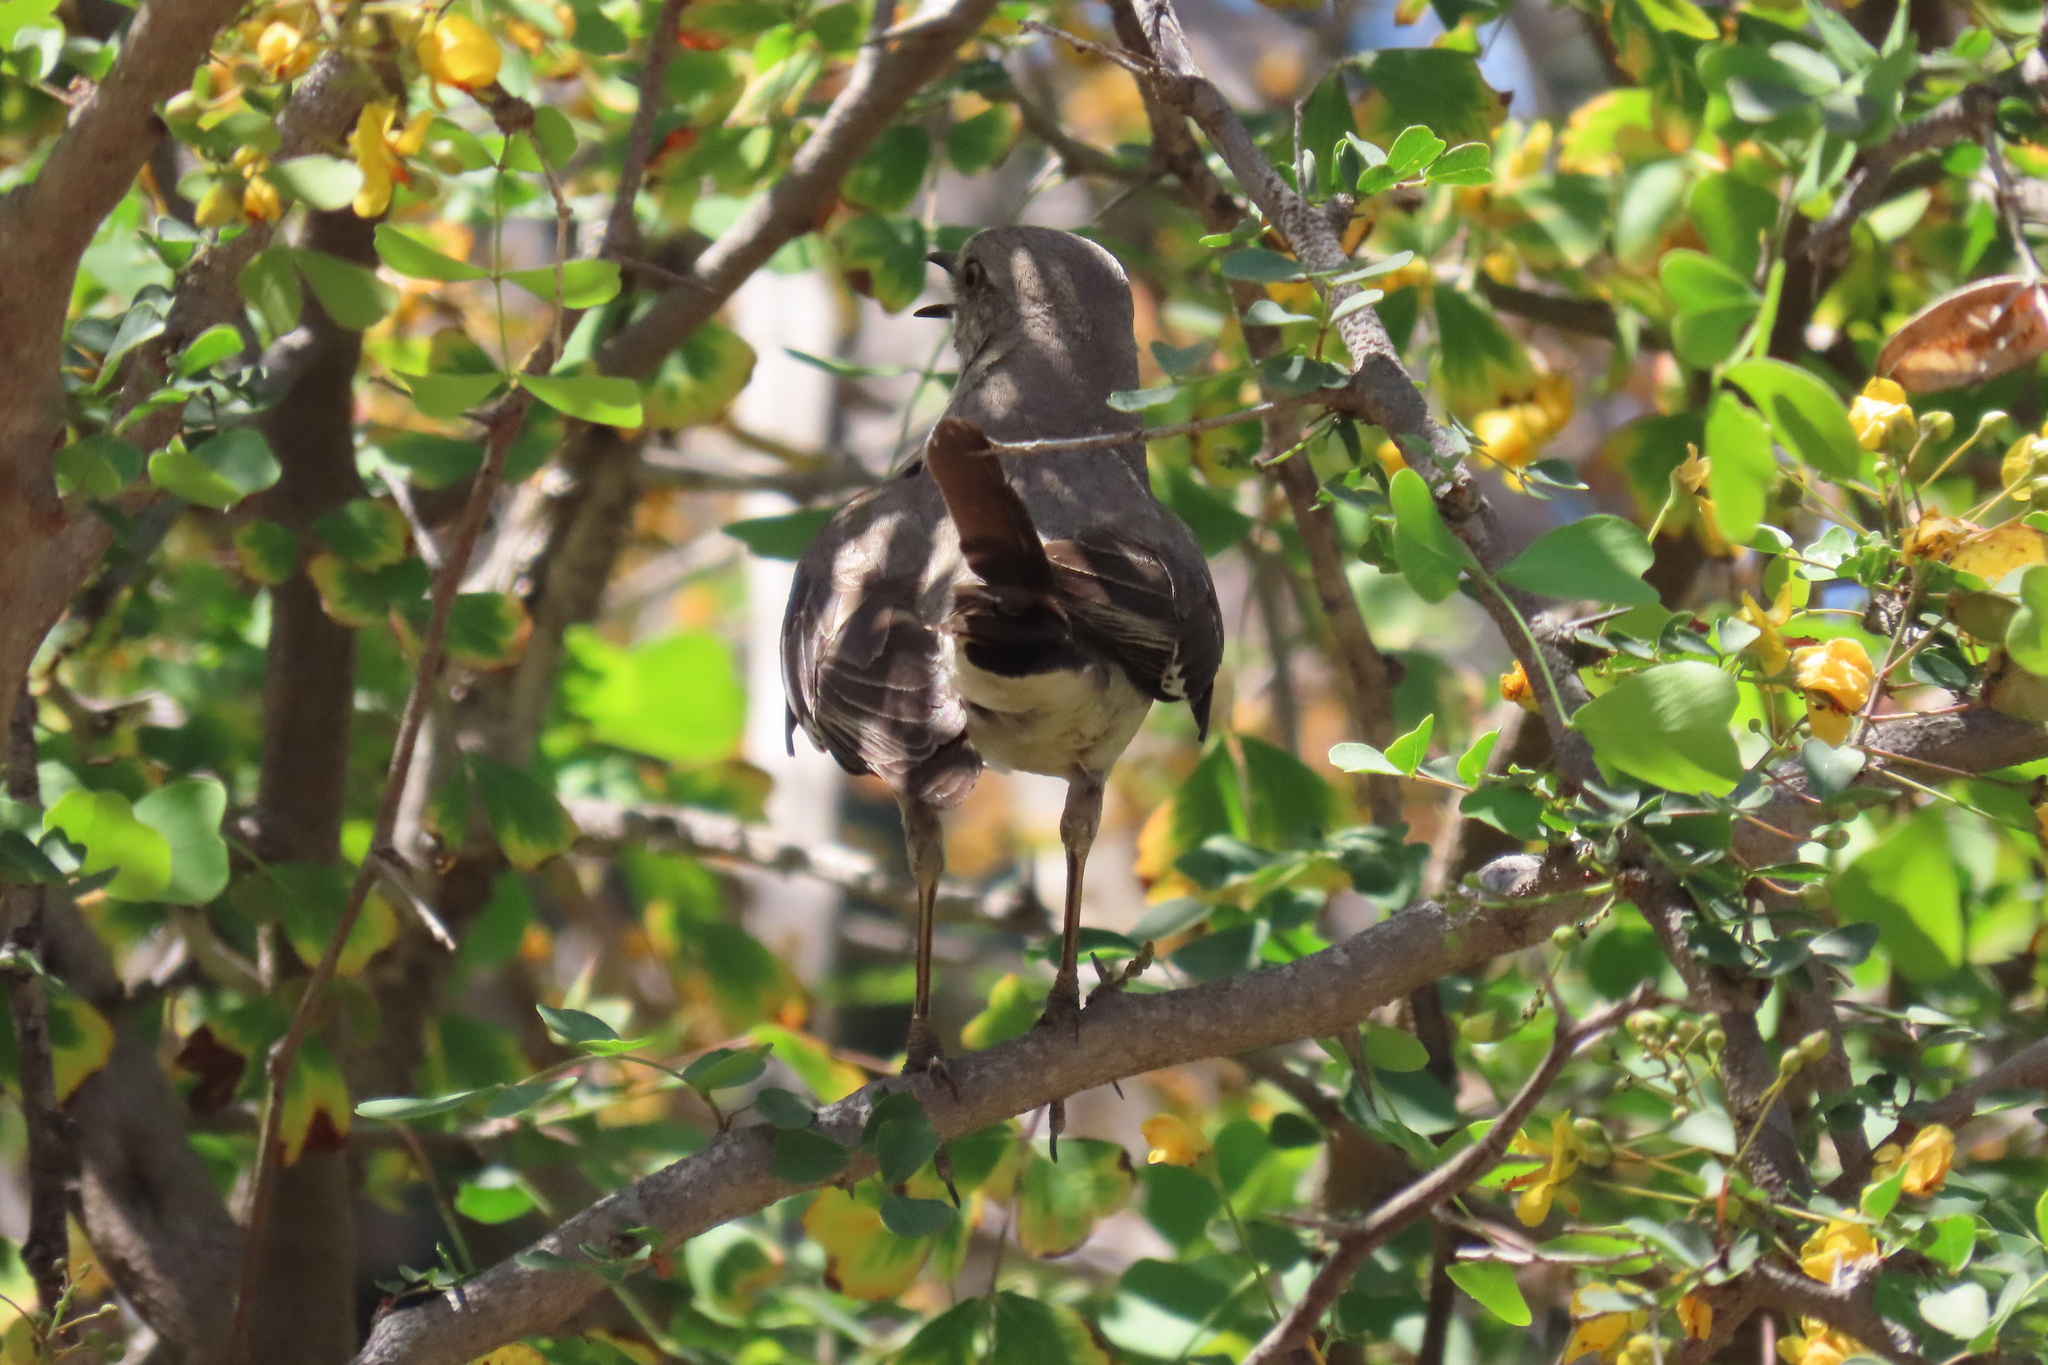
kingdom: Animalia
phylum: Chordata
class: Aves
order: Passeriformes
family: Mimidae
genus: Mimus
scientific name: Mimus polyglottos
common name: Northern mockingbird
